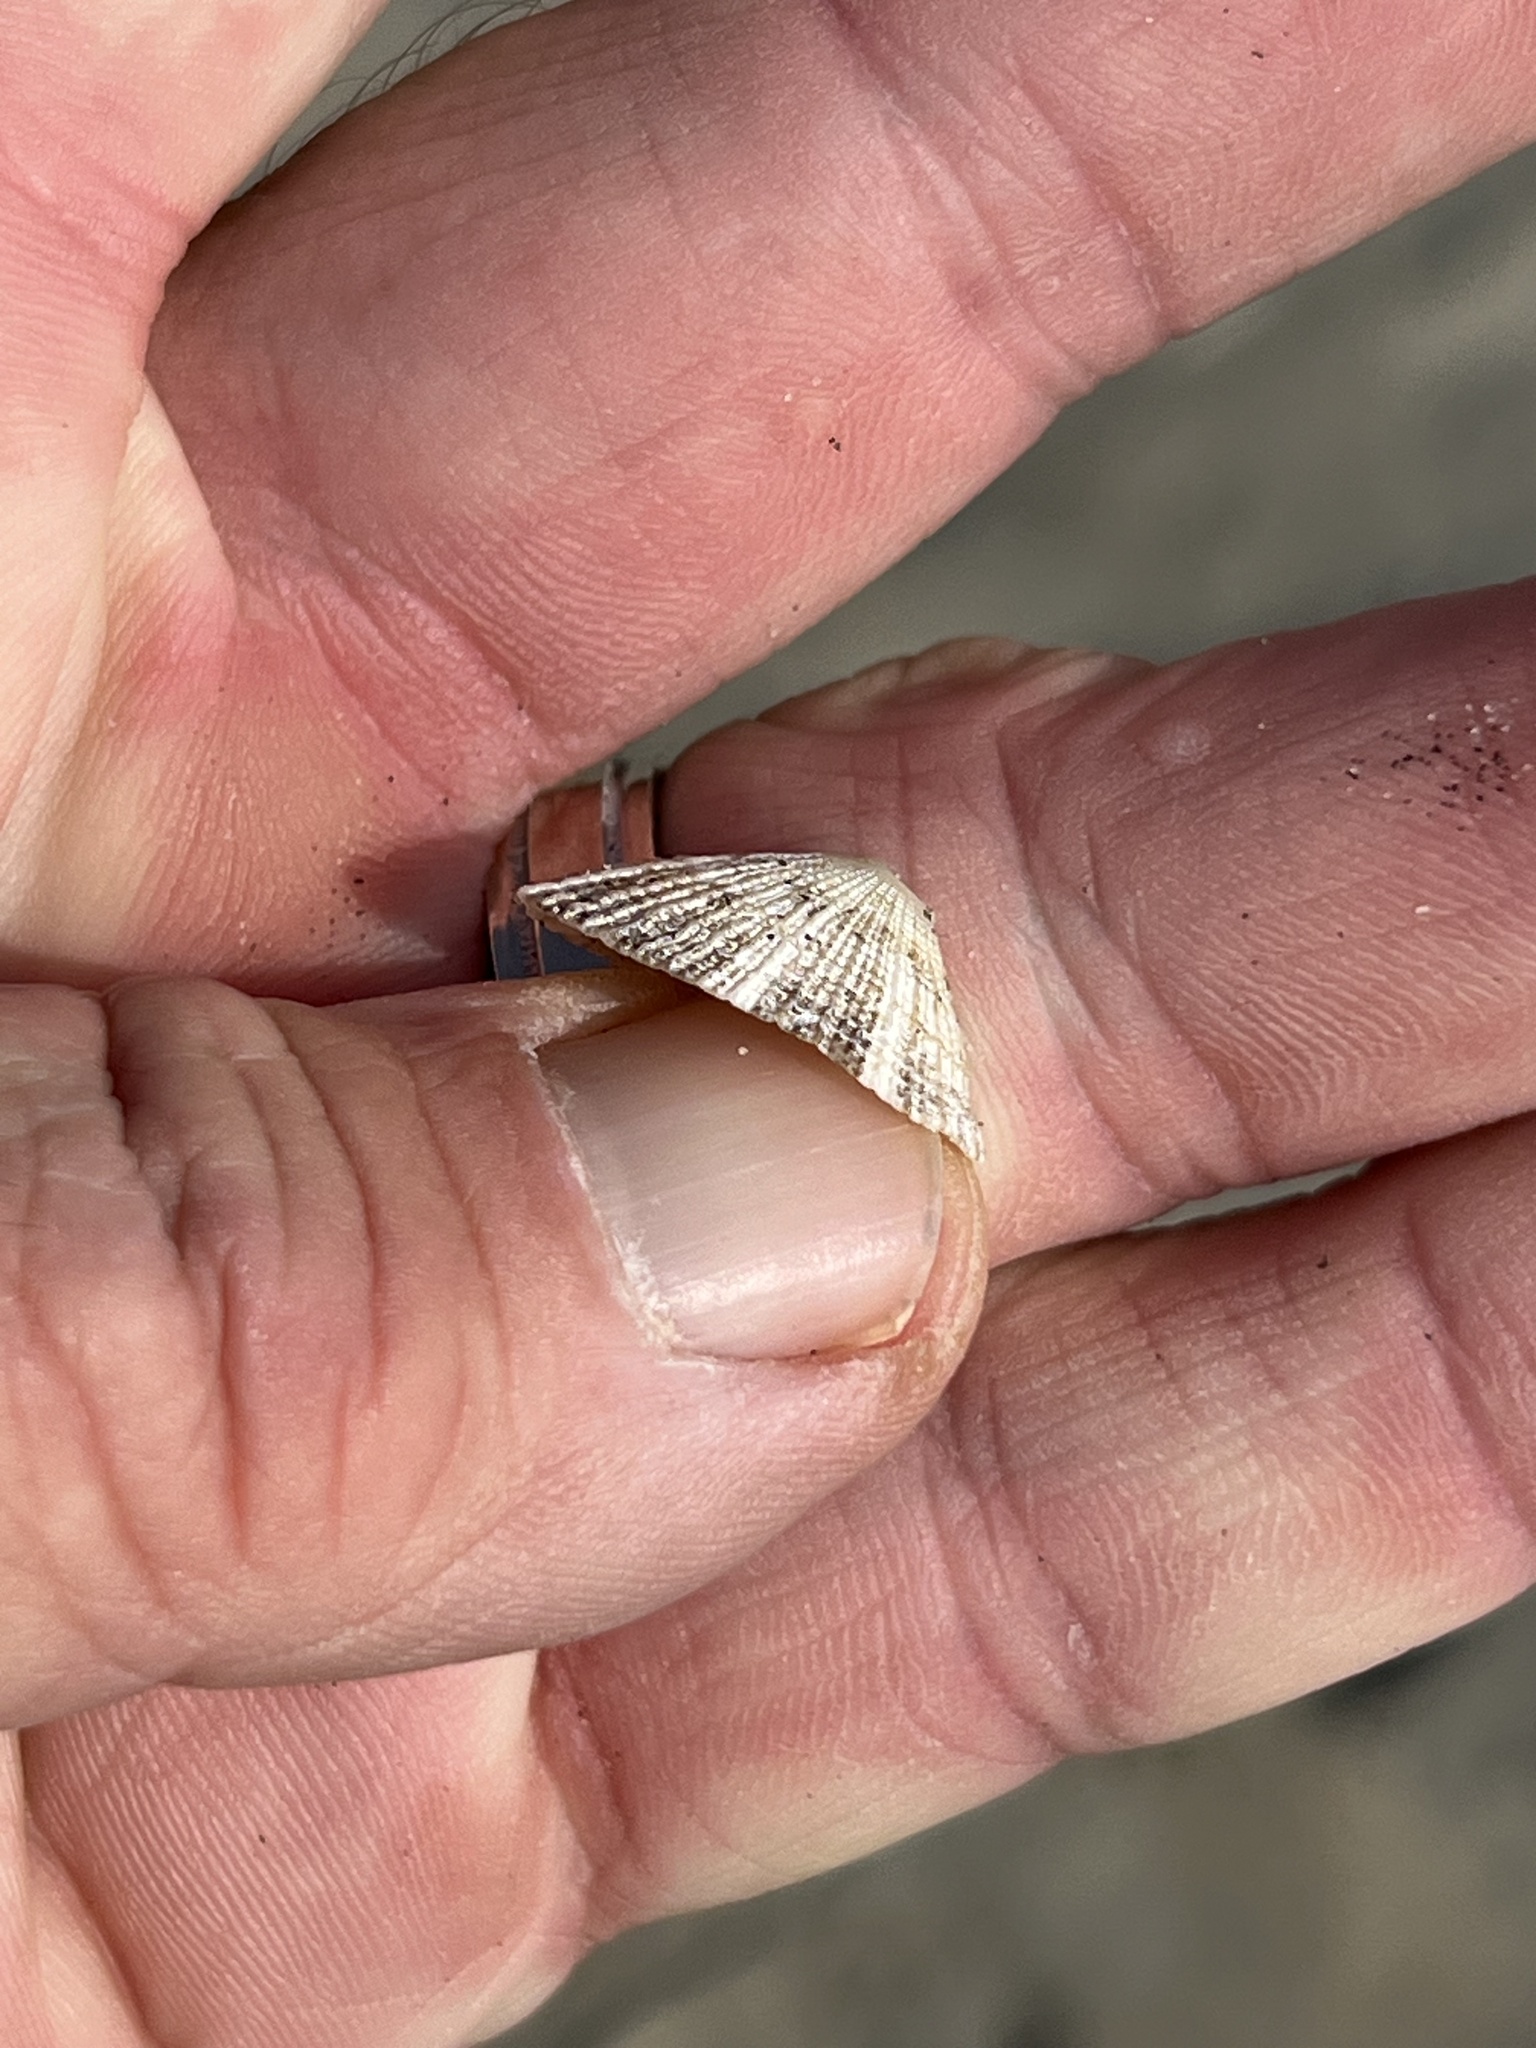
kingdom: Animalia
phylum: Mollusca
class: Gastropoda
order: Lepetellida
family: Fissurellidae
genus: Diodora
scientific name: Diodora aspera
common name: Rough keyhole limpet
